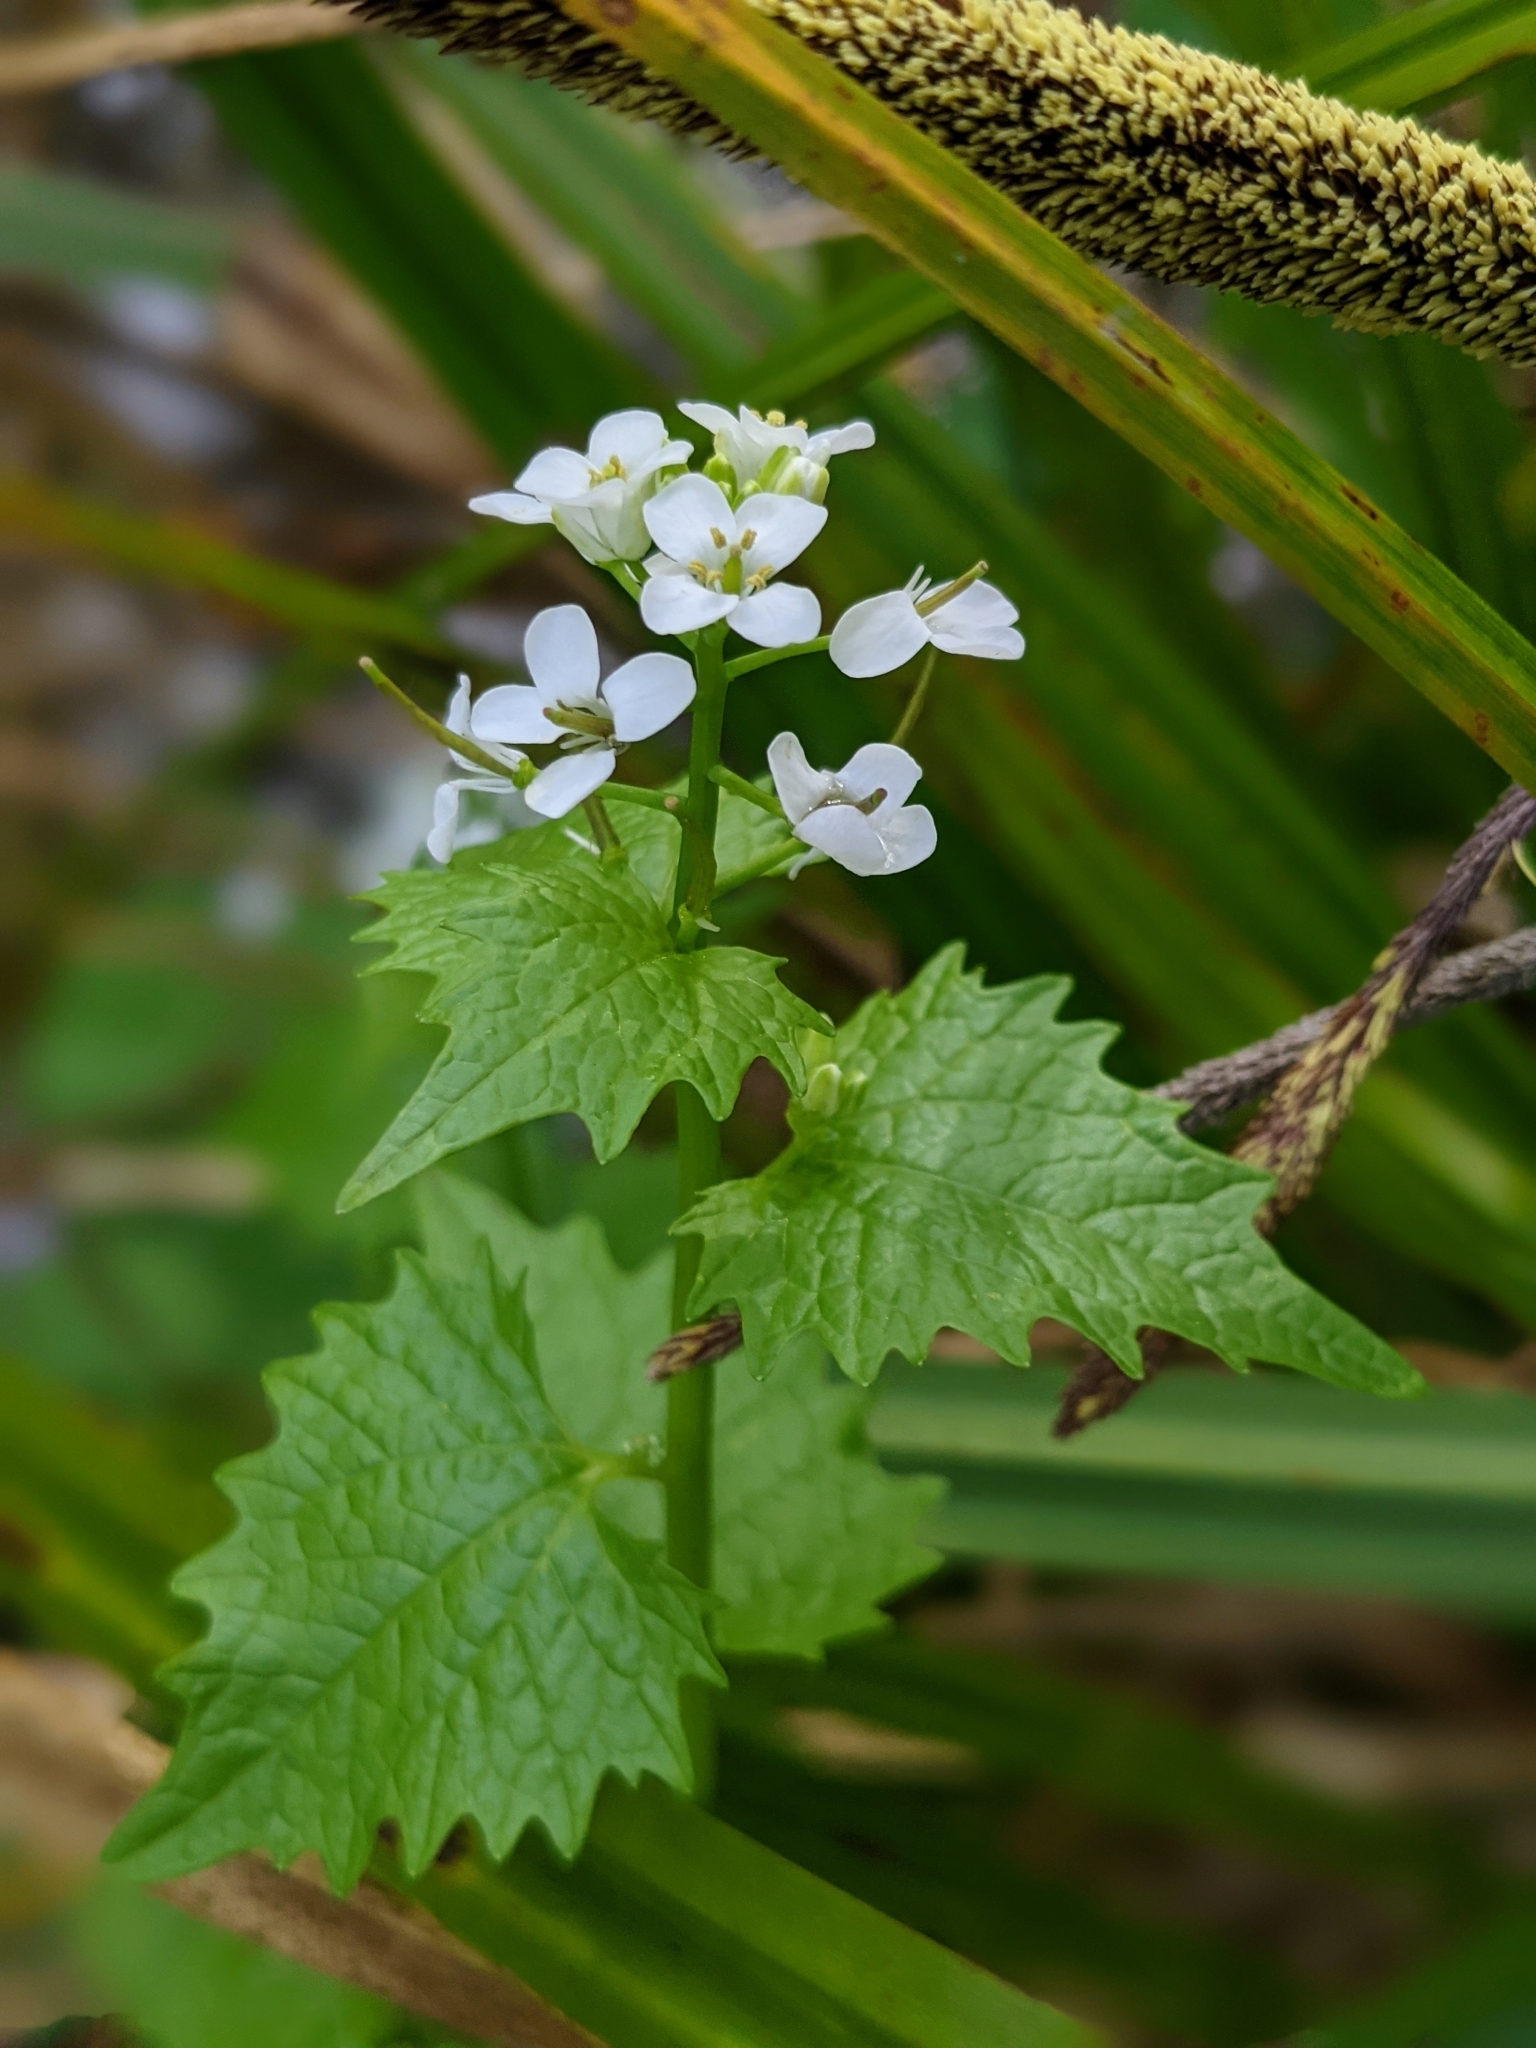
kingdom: Plantae
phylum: Tracheophyta
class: Magnoliopsida
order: Brassicales
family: Brassicaceae
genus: Alliaria
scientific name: Alliaria petiolata
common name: Garlic mustard
